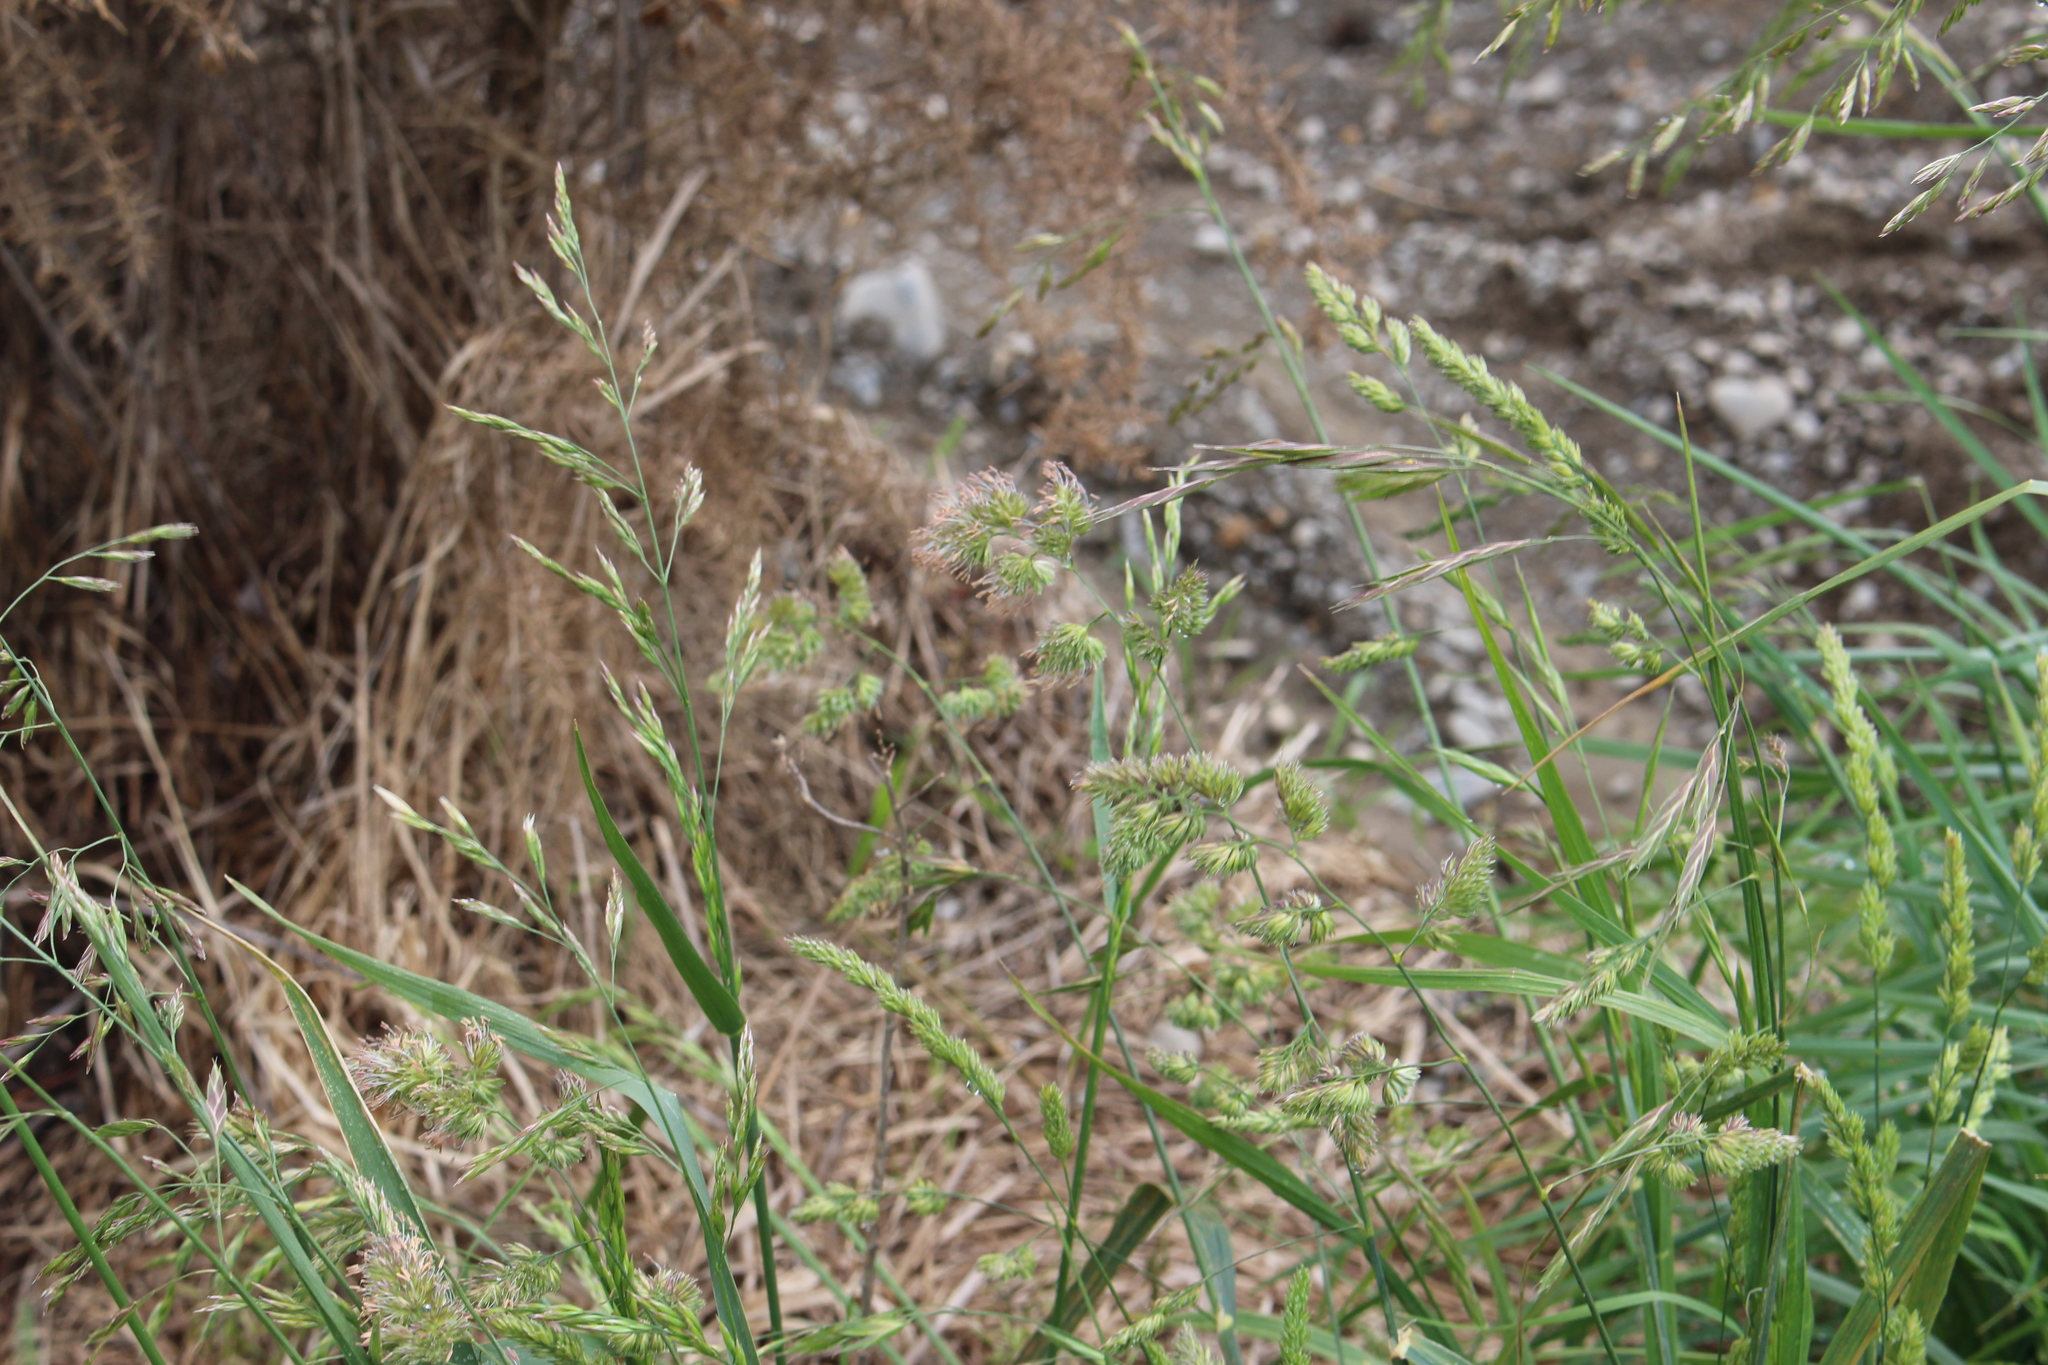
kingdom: Plantae
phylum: Tracheophyta
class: Liliopsida
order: Poales
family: Poaceae
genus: Dactylis
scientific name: Dactylis glomerata
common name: Orchardgrass
